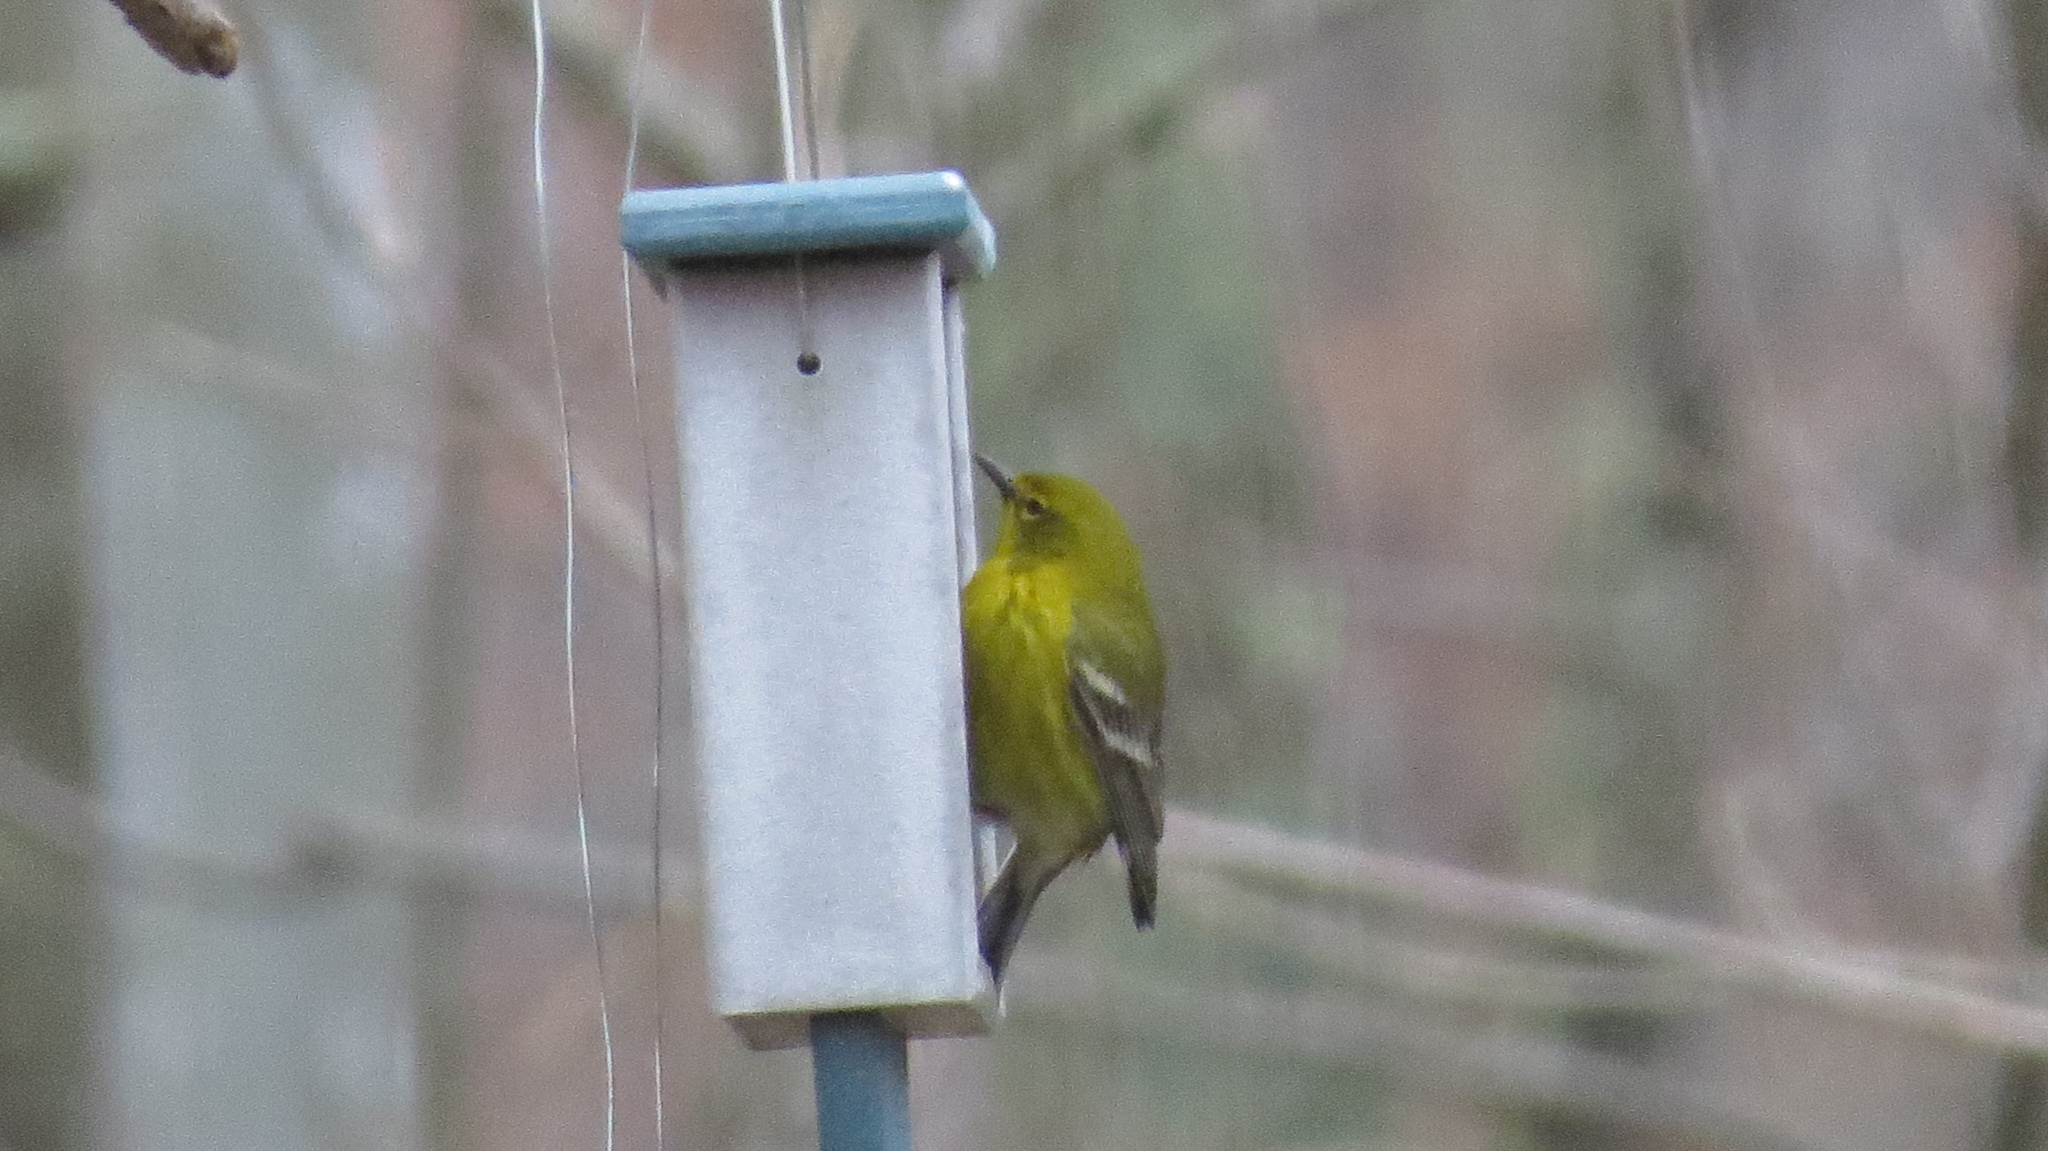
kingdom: Animalia
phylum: Chordata
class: Aves
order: Passeriformes
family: Parulidae
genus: Setophaga
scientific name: Setophaga pinus
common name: Pine warbler
